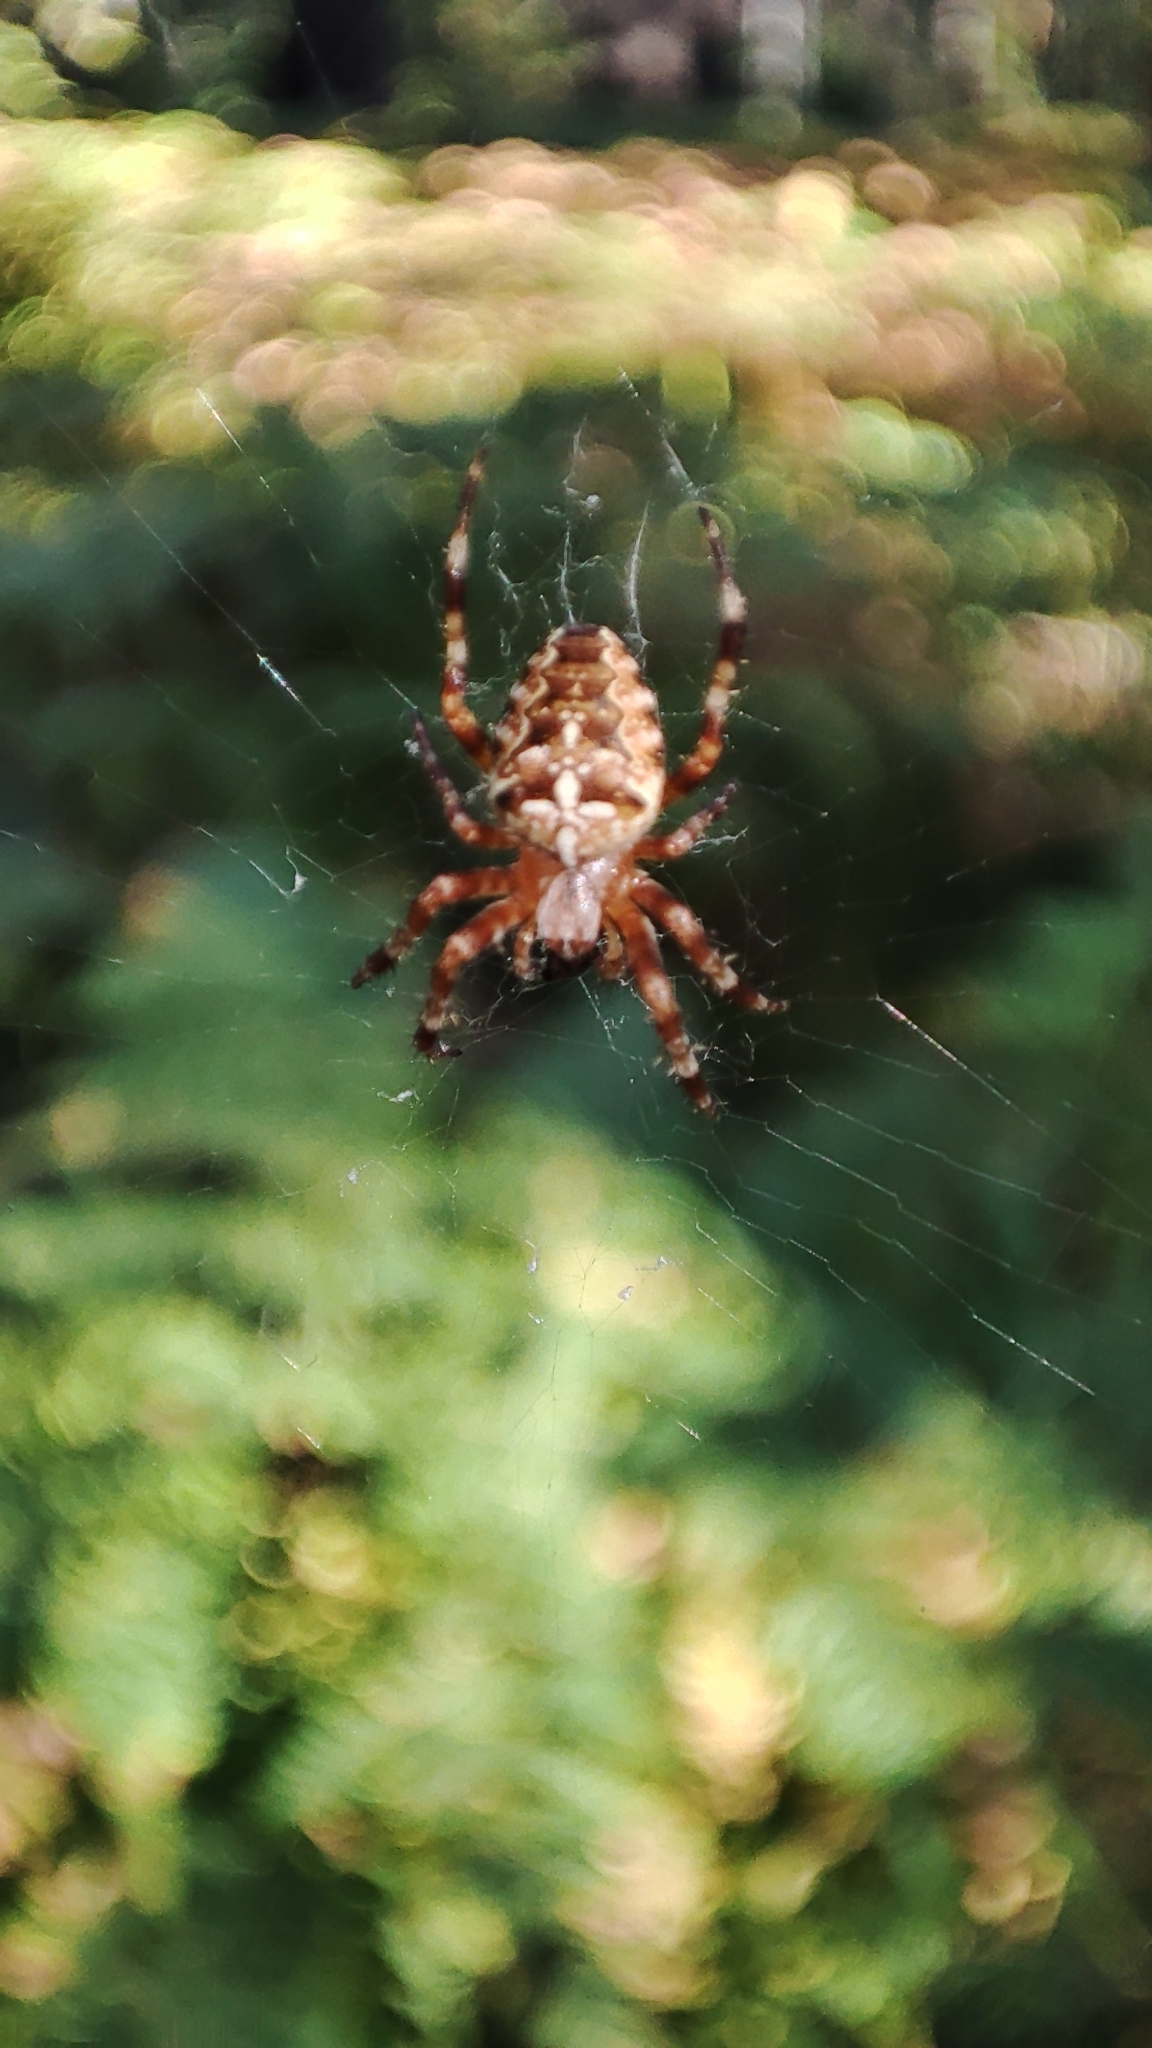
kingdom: Animalia
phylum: Arthropoda
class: Arachnida
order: Araneae
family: Araneidae
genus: Araneus
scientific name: Araneus diadematus
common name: Cross orbweaver
